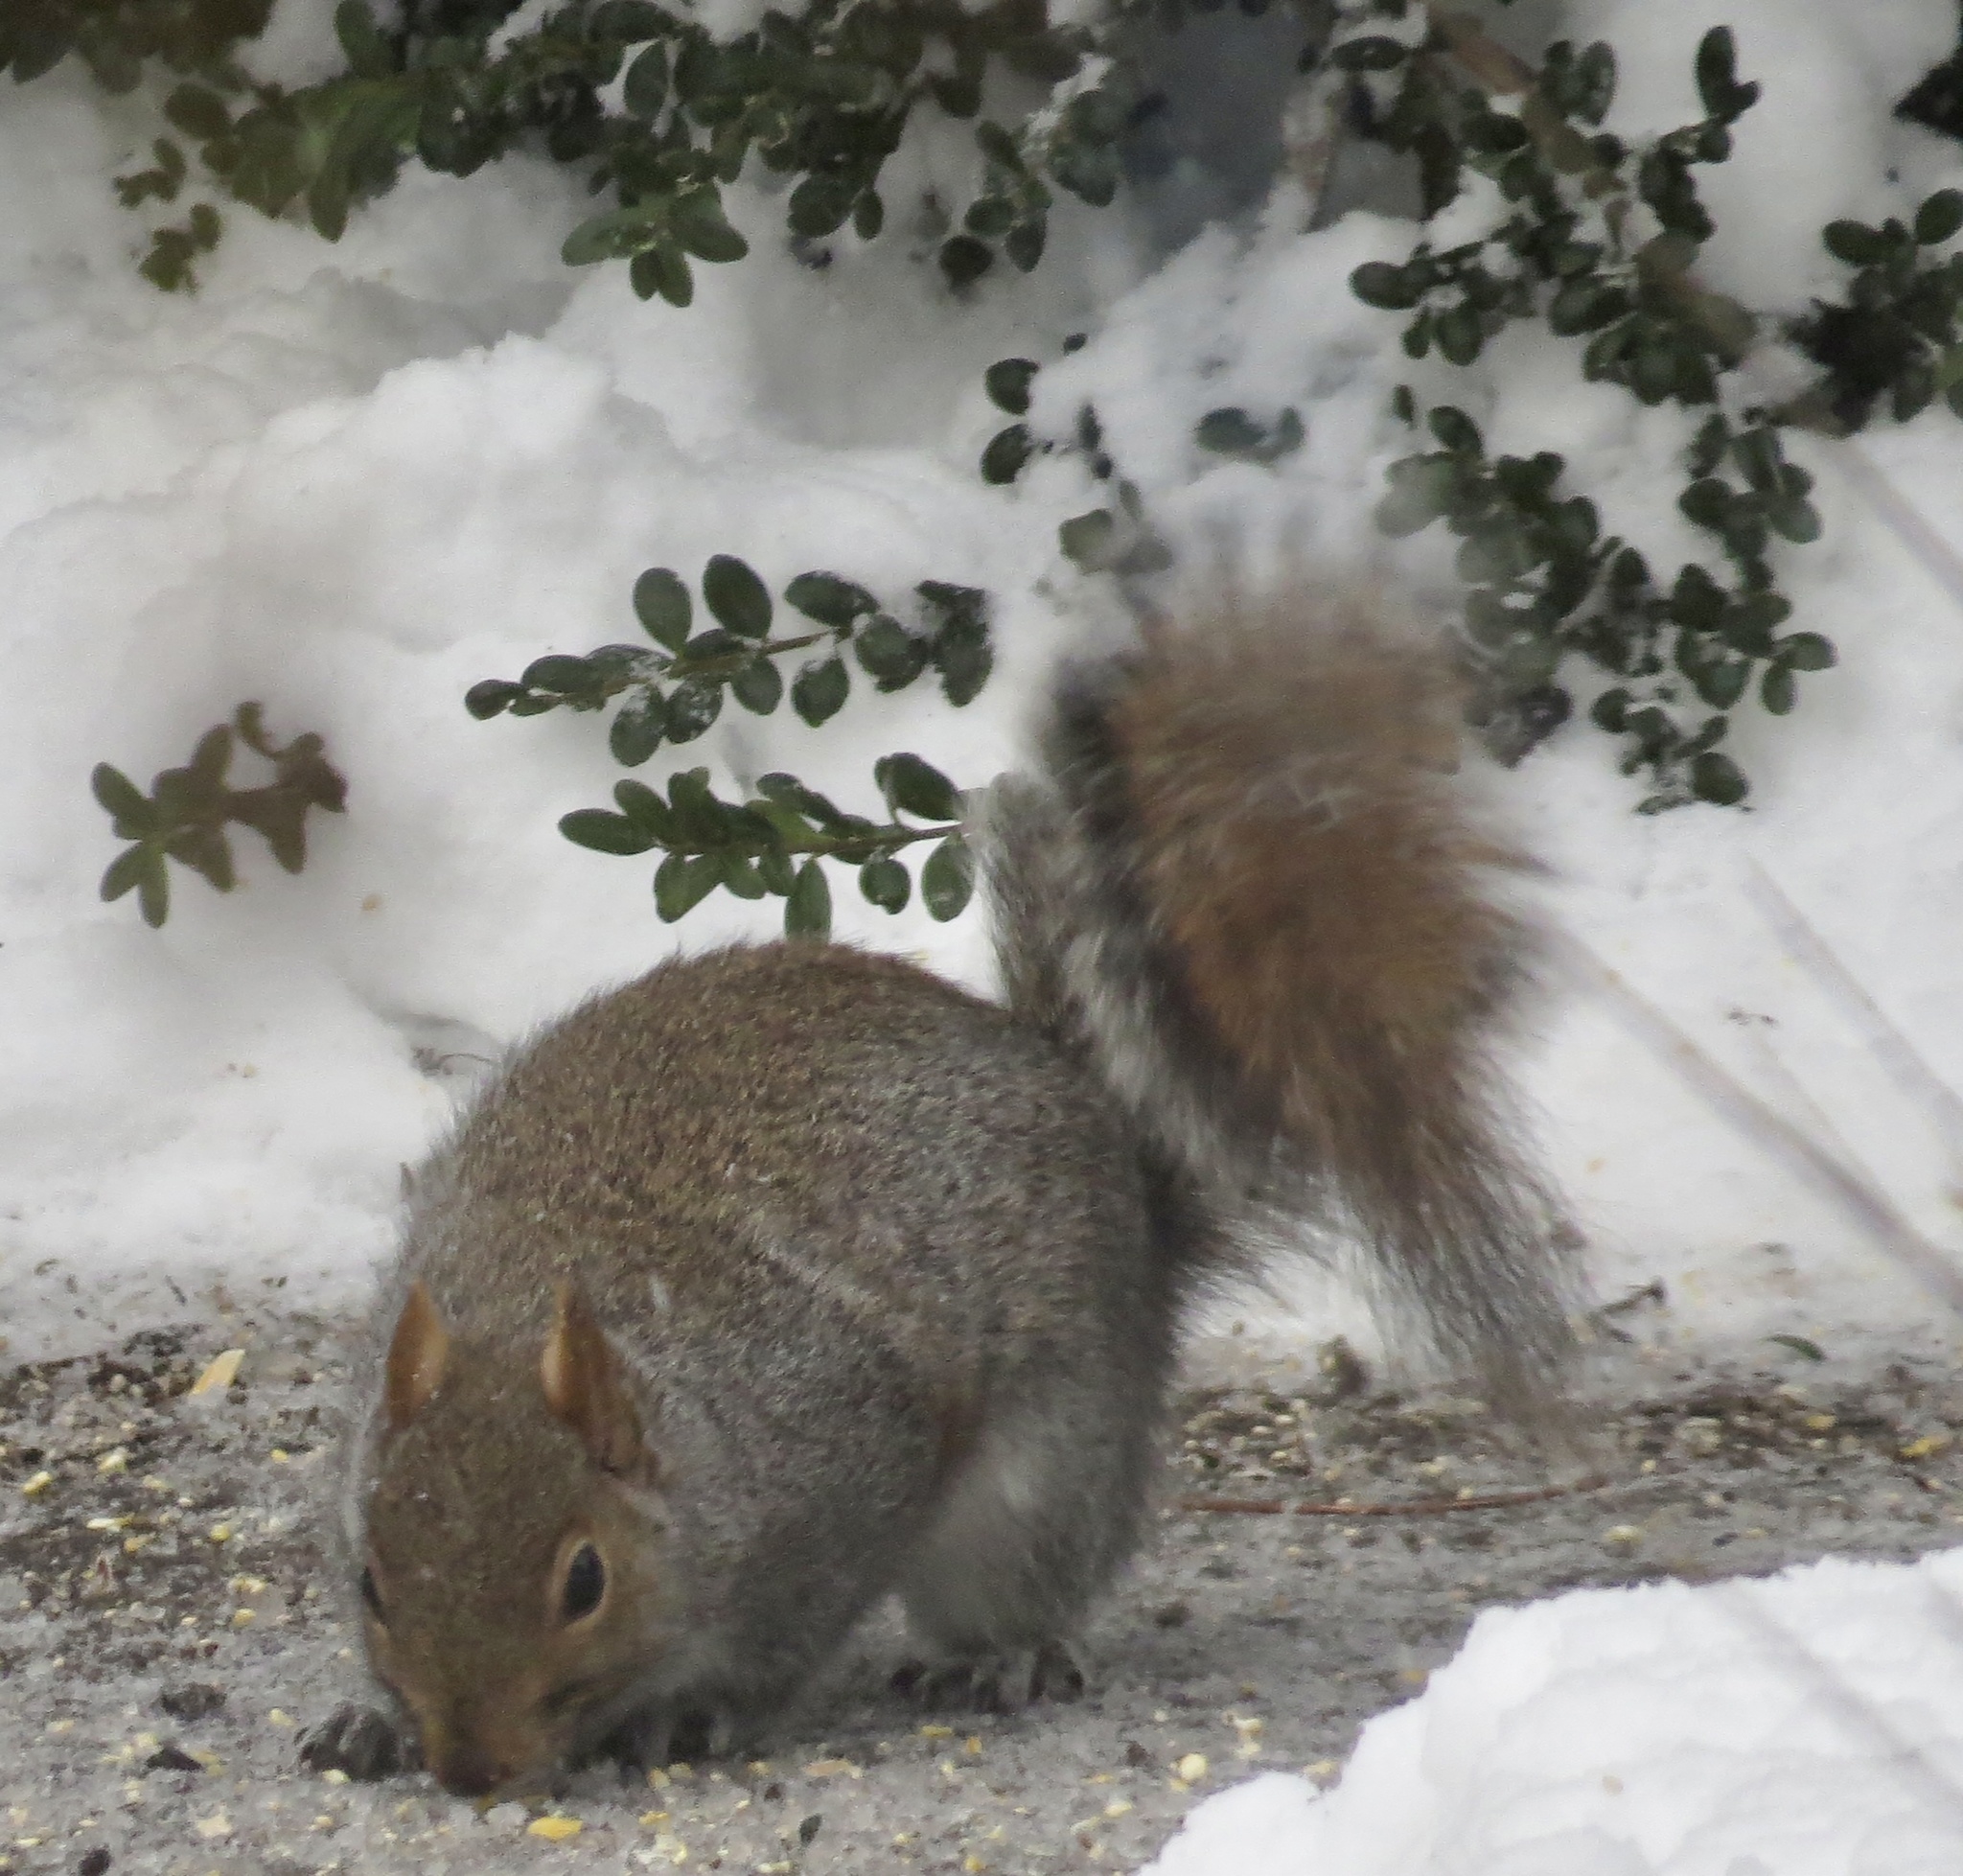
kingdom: Animalia
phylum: Chordata
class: Mammalia
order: Rodentia
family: Sciuridae
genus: Sciurus
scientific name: Sciurus carolinensis
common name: Eastern gray squirrel
